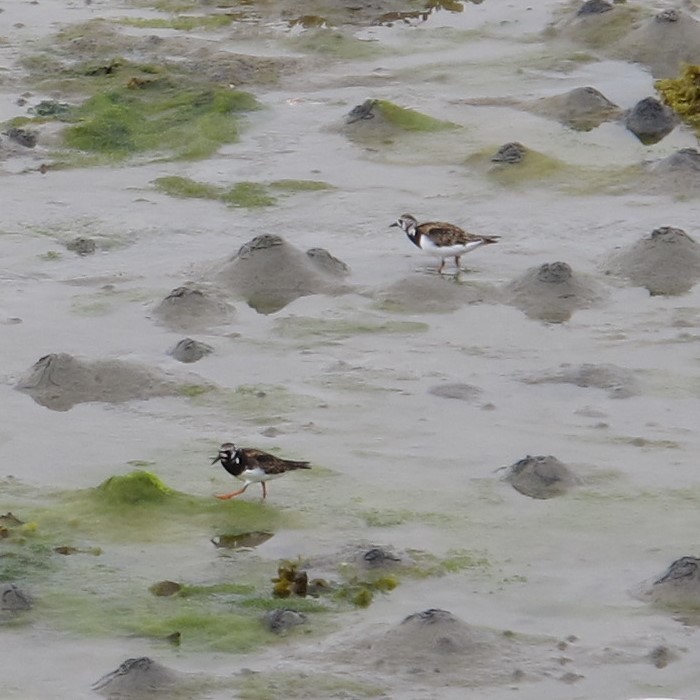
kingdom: Animalia
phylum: Chordata
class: Aves
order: Charadriiformes
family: Scolopacidae
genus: Arenaria
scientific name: Arenaria interpres
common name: Ruddy turnstone
